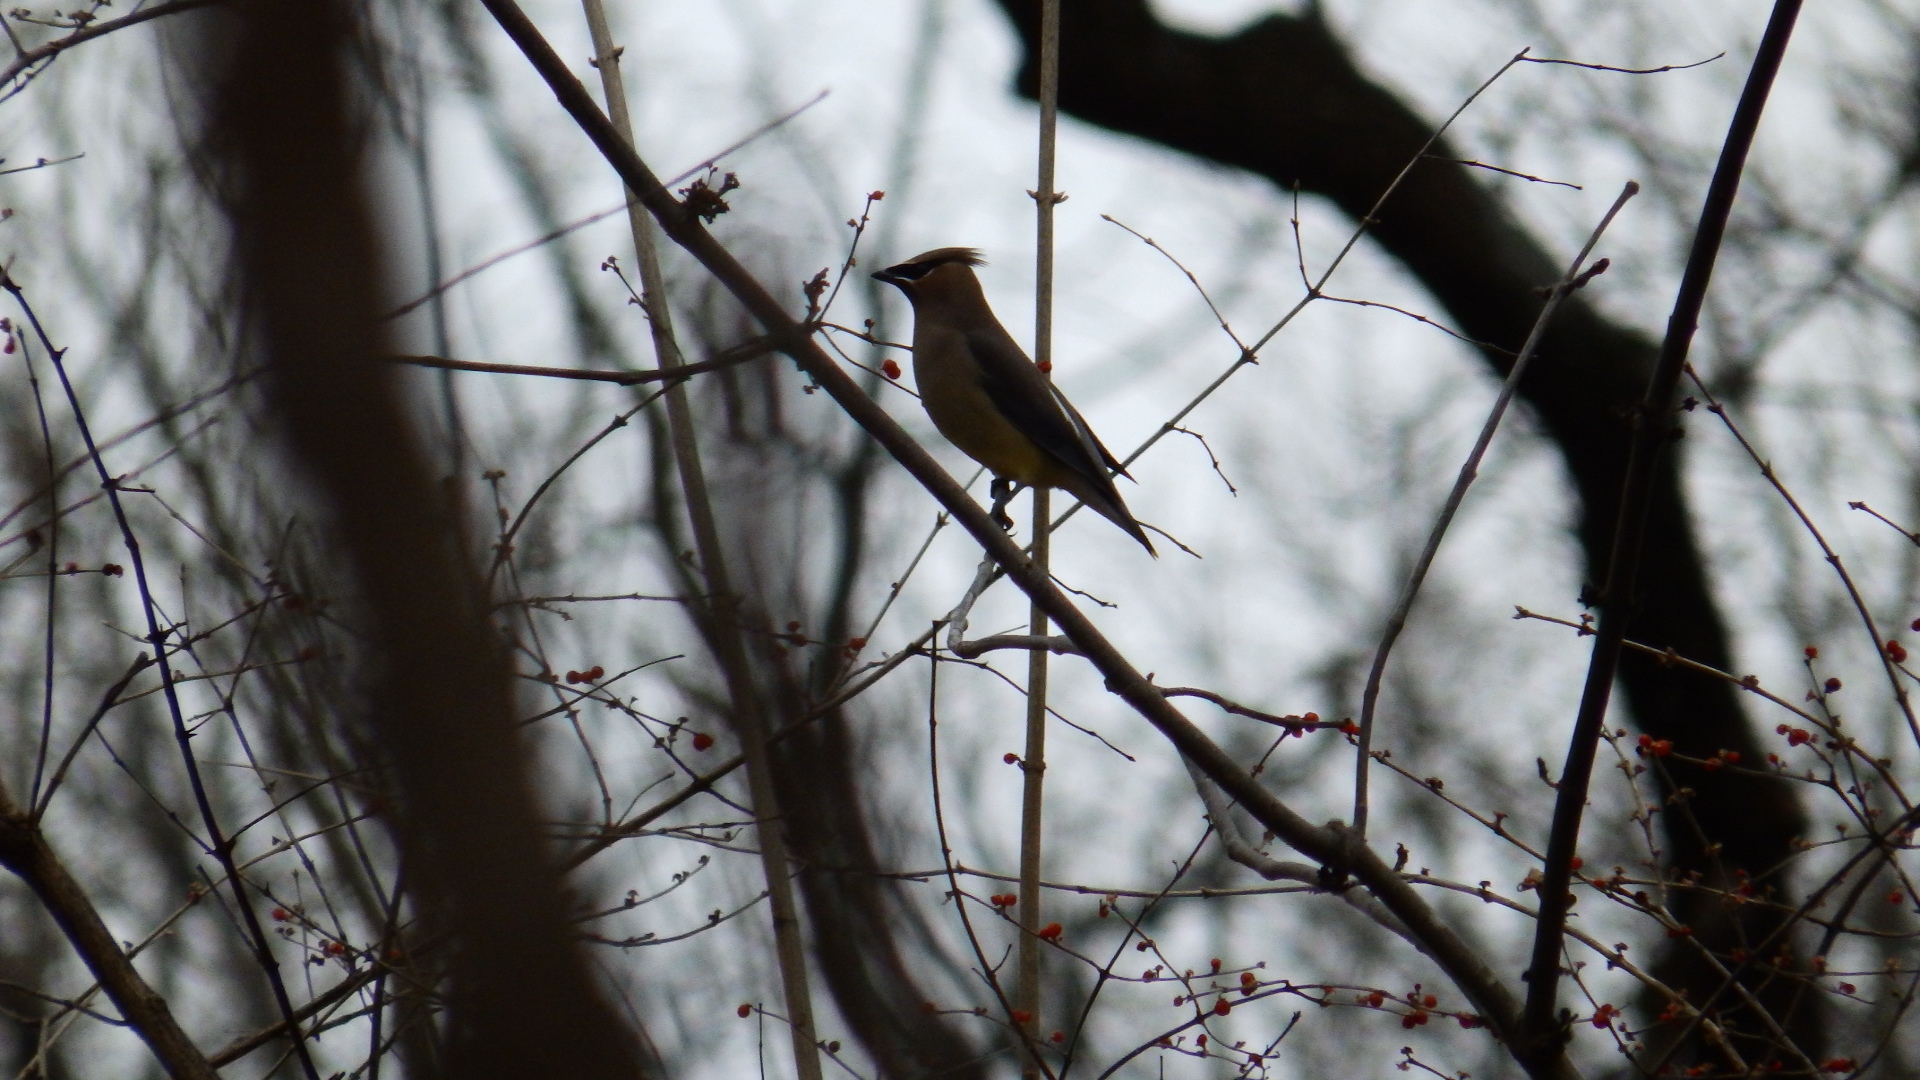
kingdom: Animalia
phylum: Chordata
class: Aves
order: Passeriformes
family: Bombycillidae
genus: Bombycilla
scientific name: Bombycilla cedrorum
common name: Cedar waxwing
